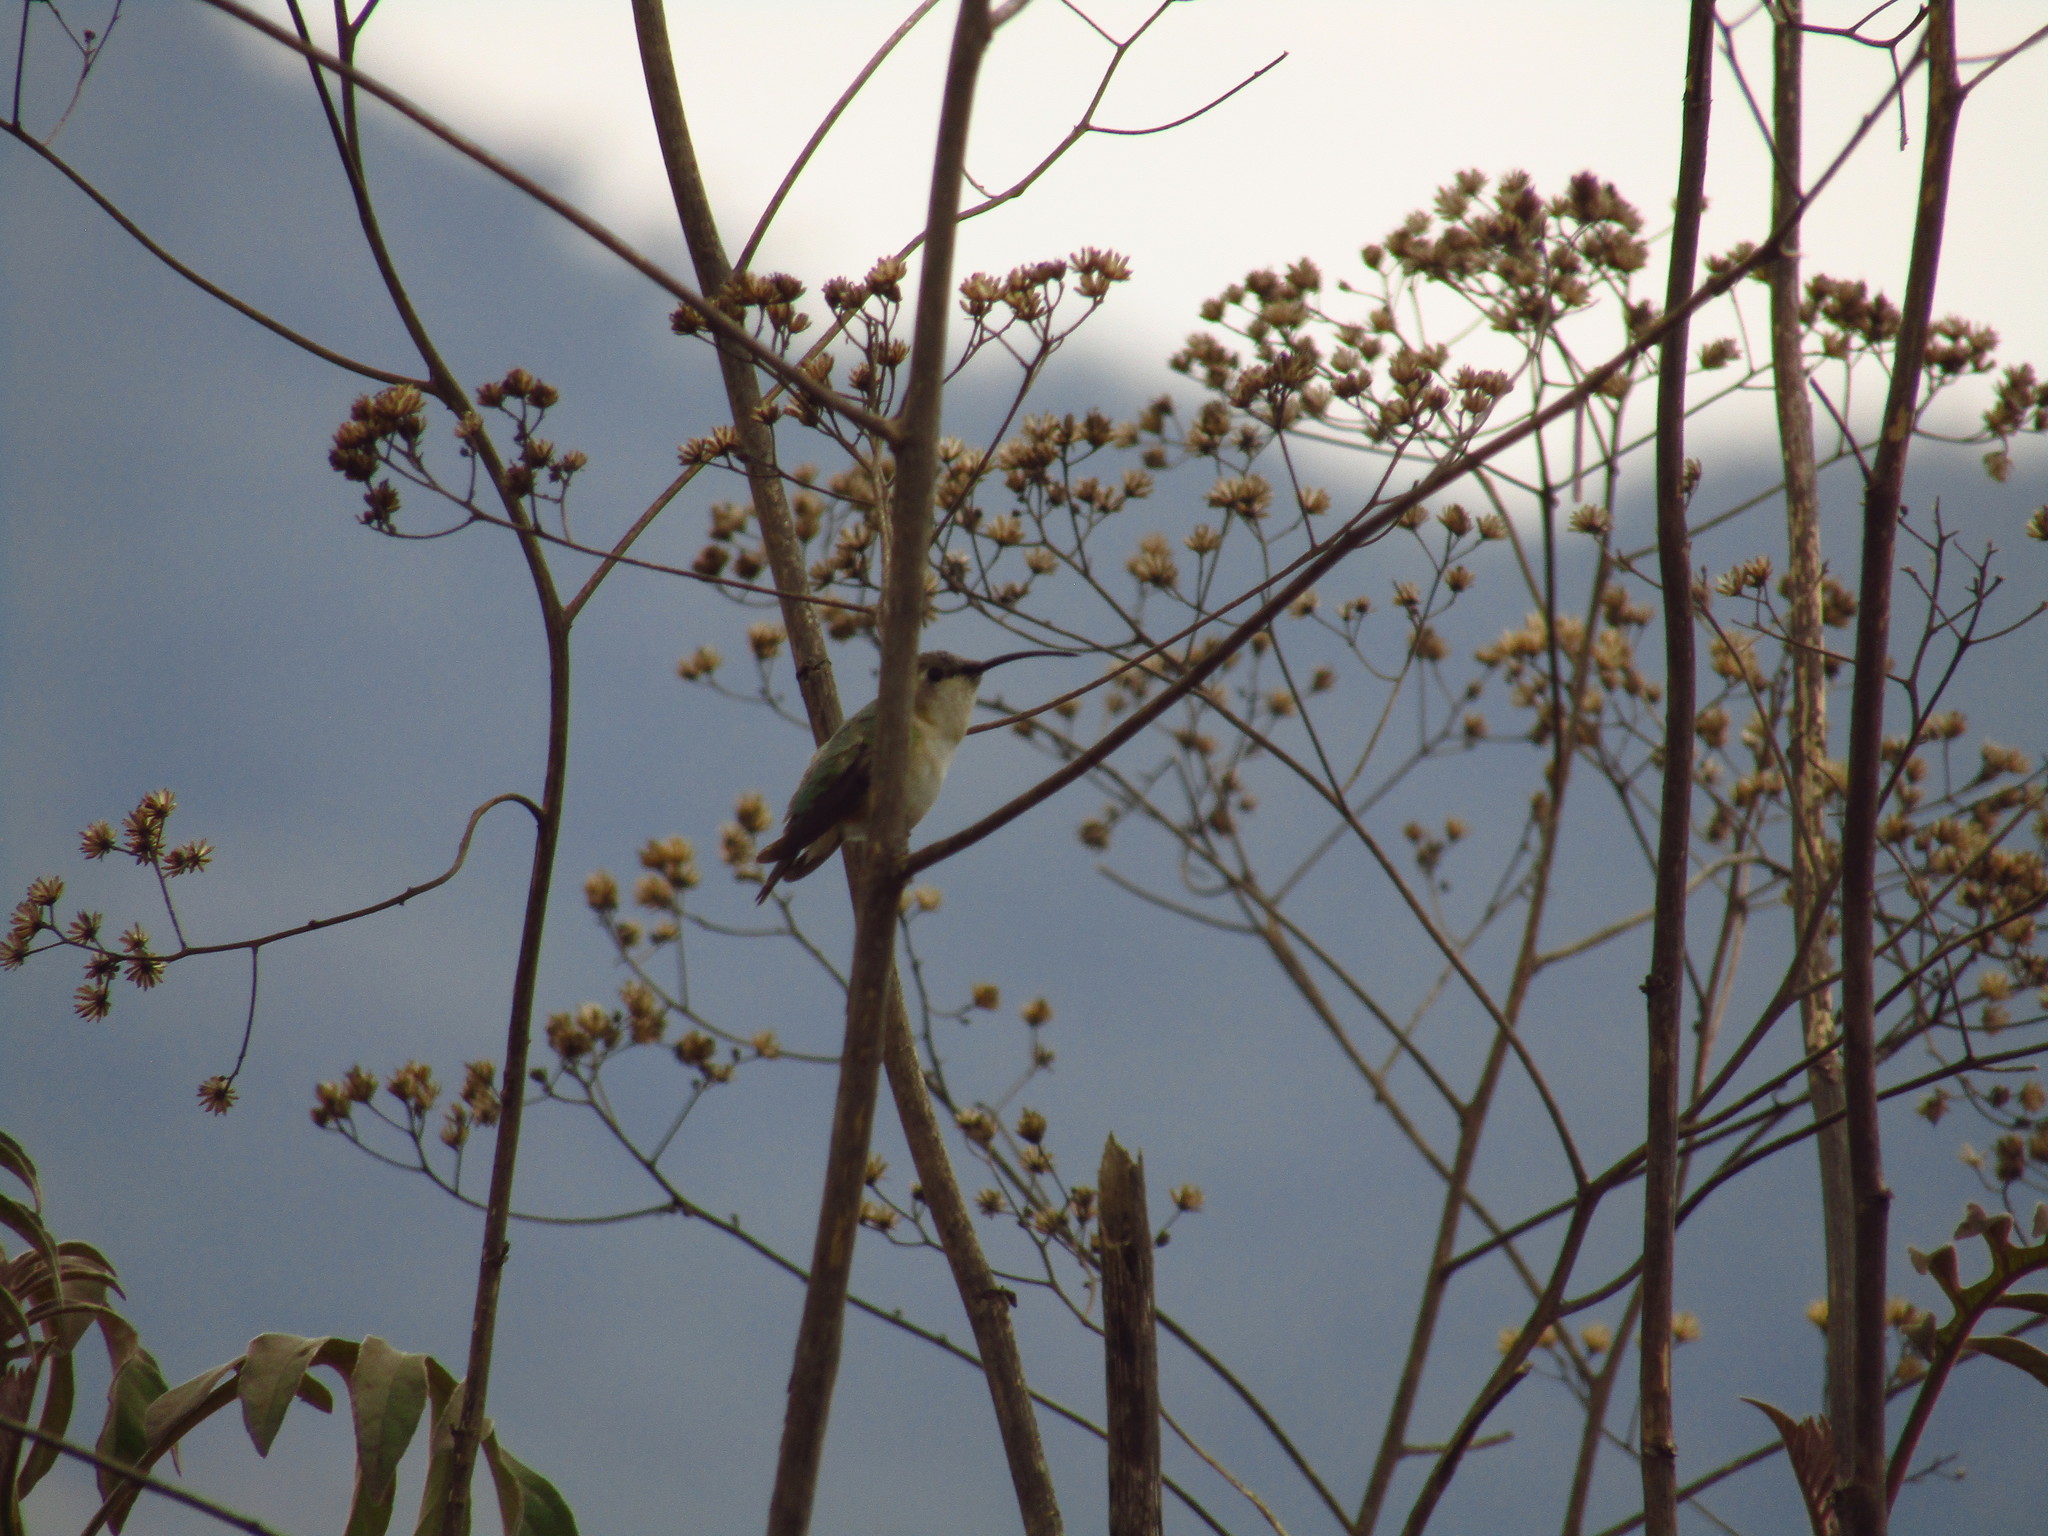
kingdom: Animalia
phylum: Chordata
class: Aves
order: Apodiformes
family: Trochilidae
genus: Doricha
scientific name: Doricha eliza
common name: Mexican sheartail
